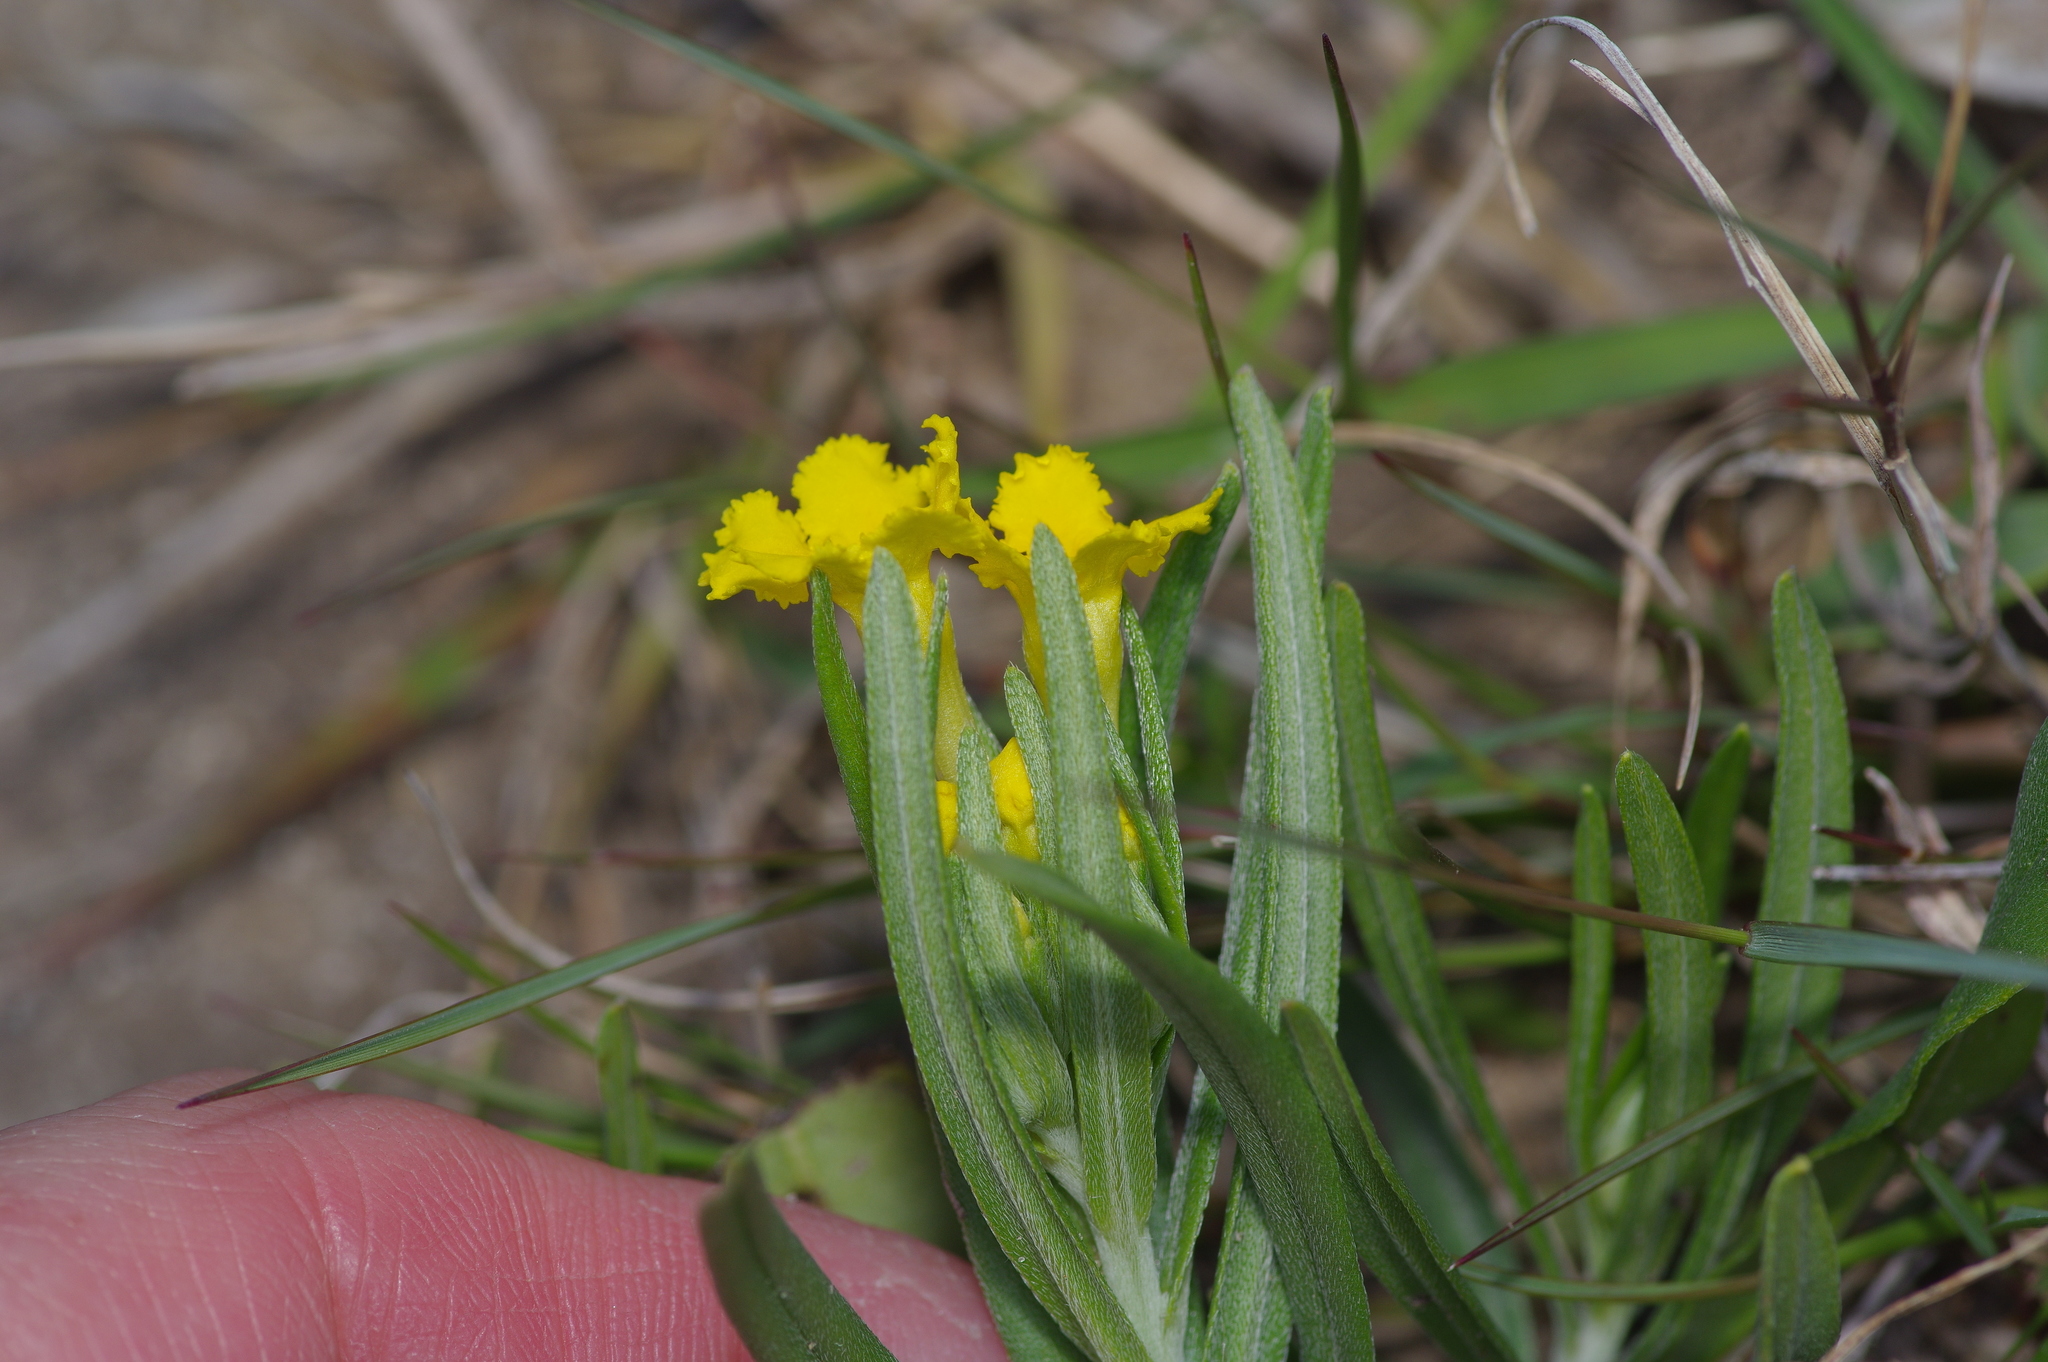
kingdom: Plantae
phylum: Tracheophyta
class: Magnoliopsida
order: Boraginales
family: Boraginaceae
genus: Lithospermum
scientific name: Lithospermum incisum
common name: Fringed gromwell
